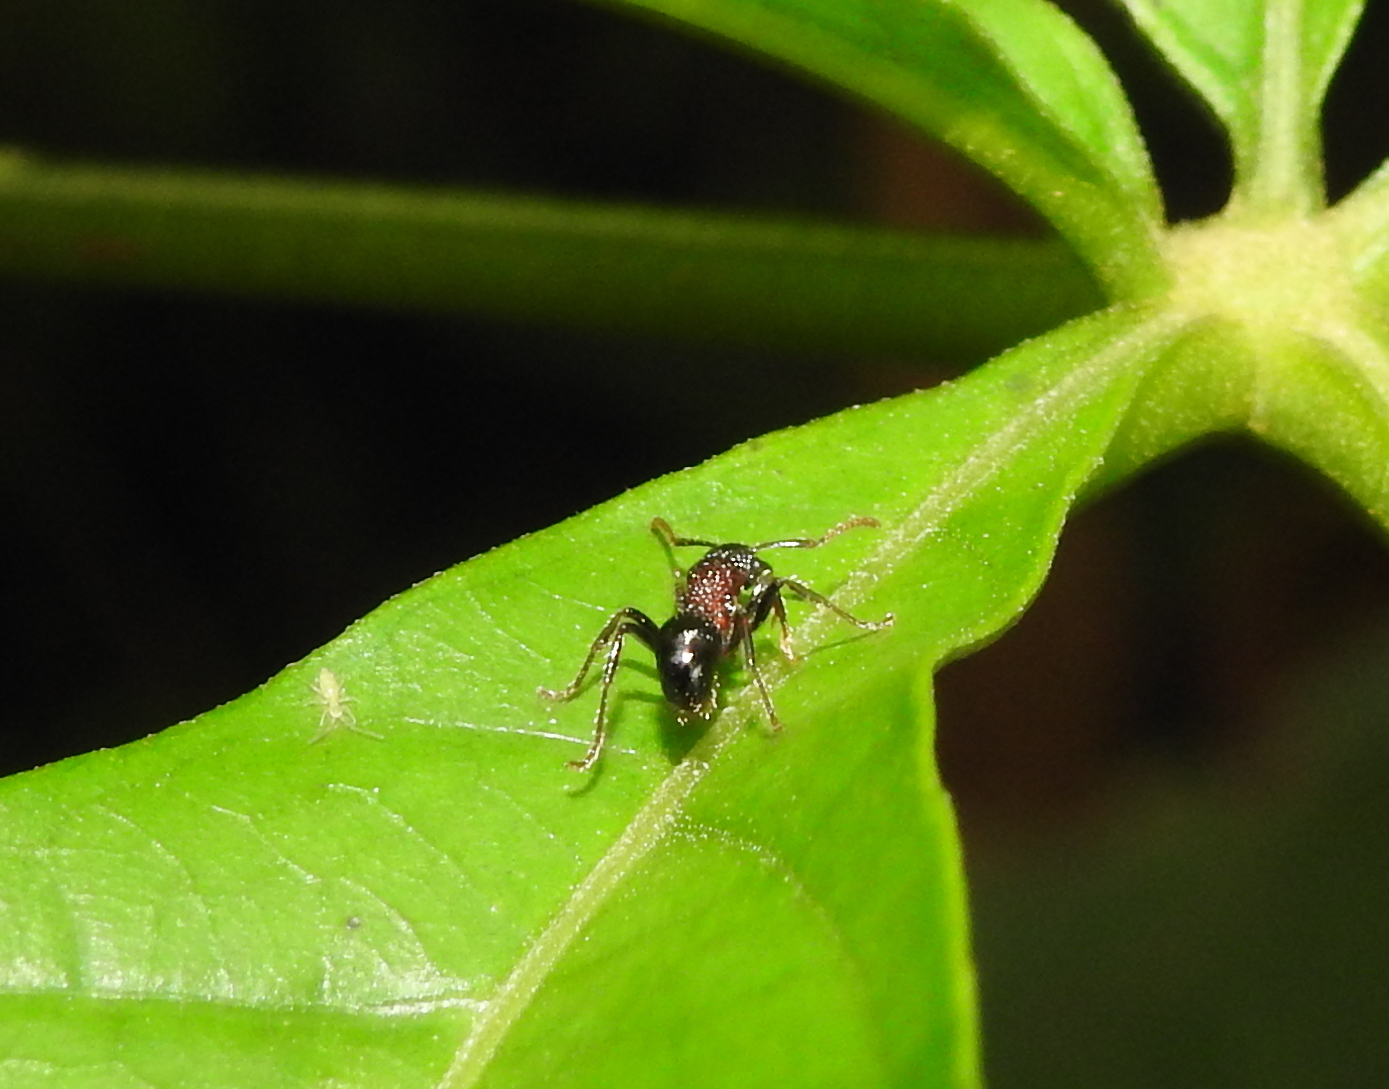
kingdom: Animalia
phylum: Arthropoda
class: Insecta
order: Hymenoptera
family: Formicidae
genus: Stictoponera
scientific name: Stictoponera bicolor
